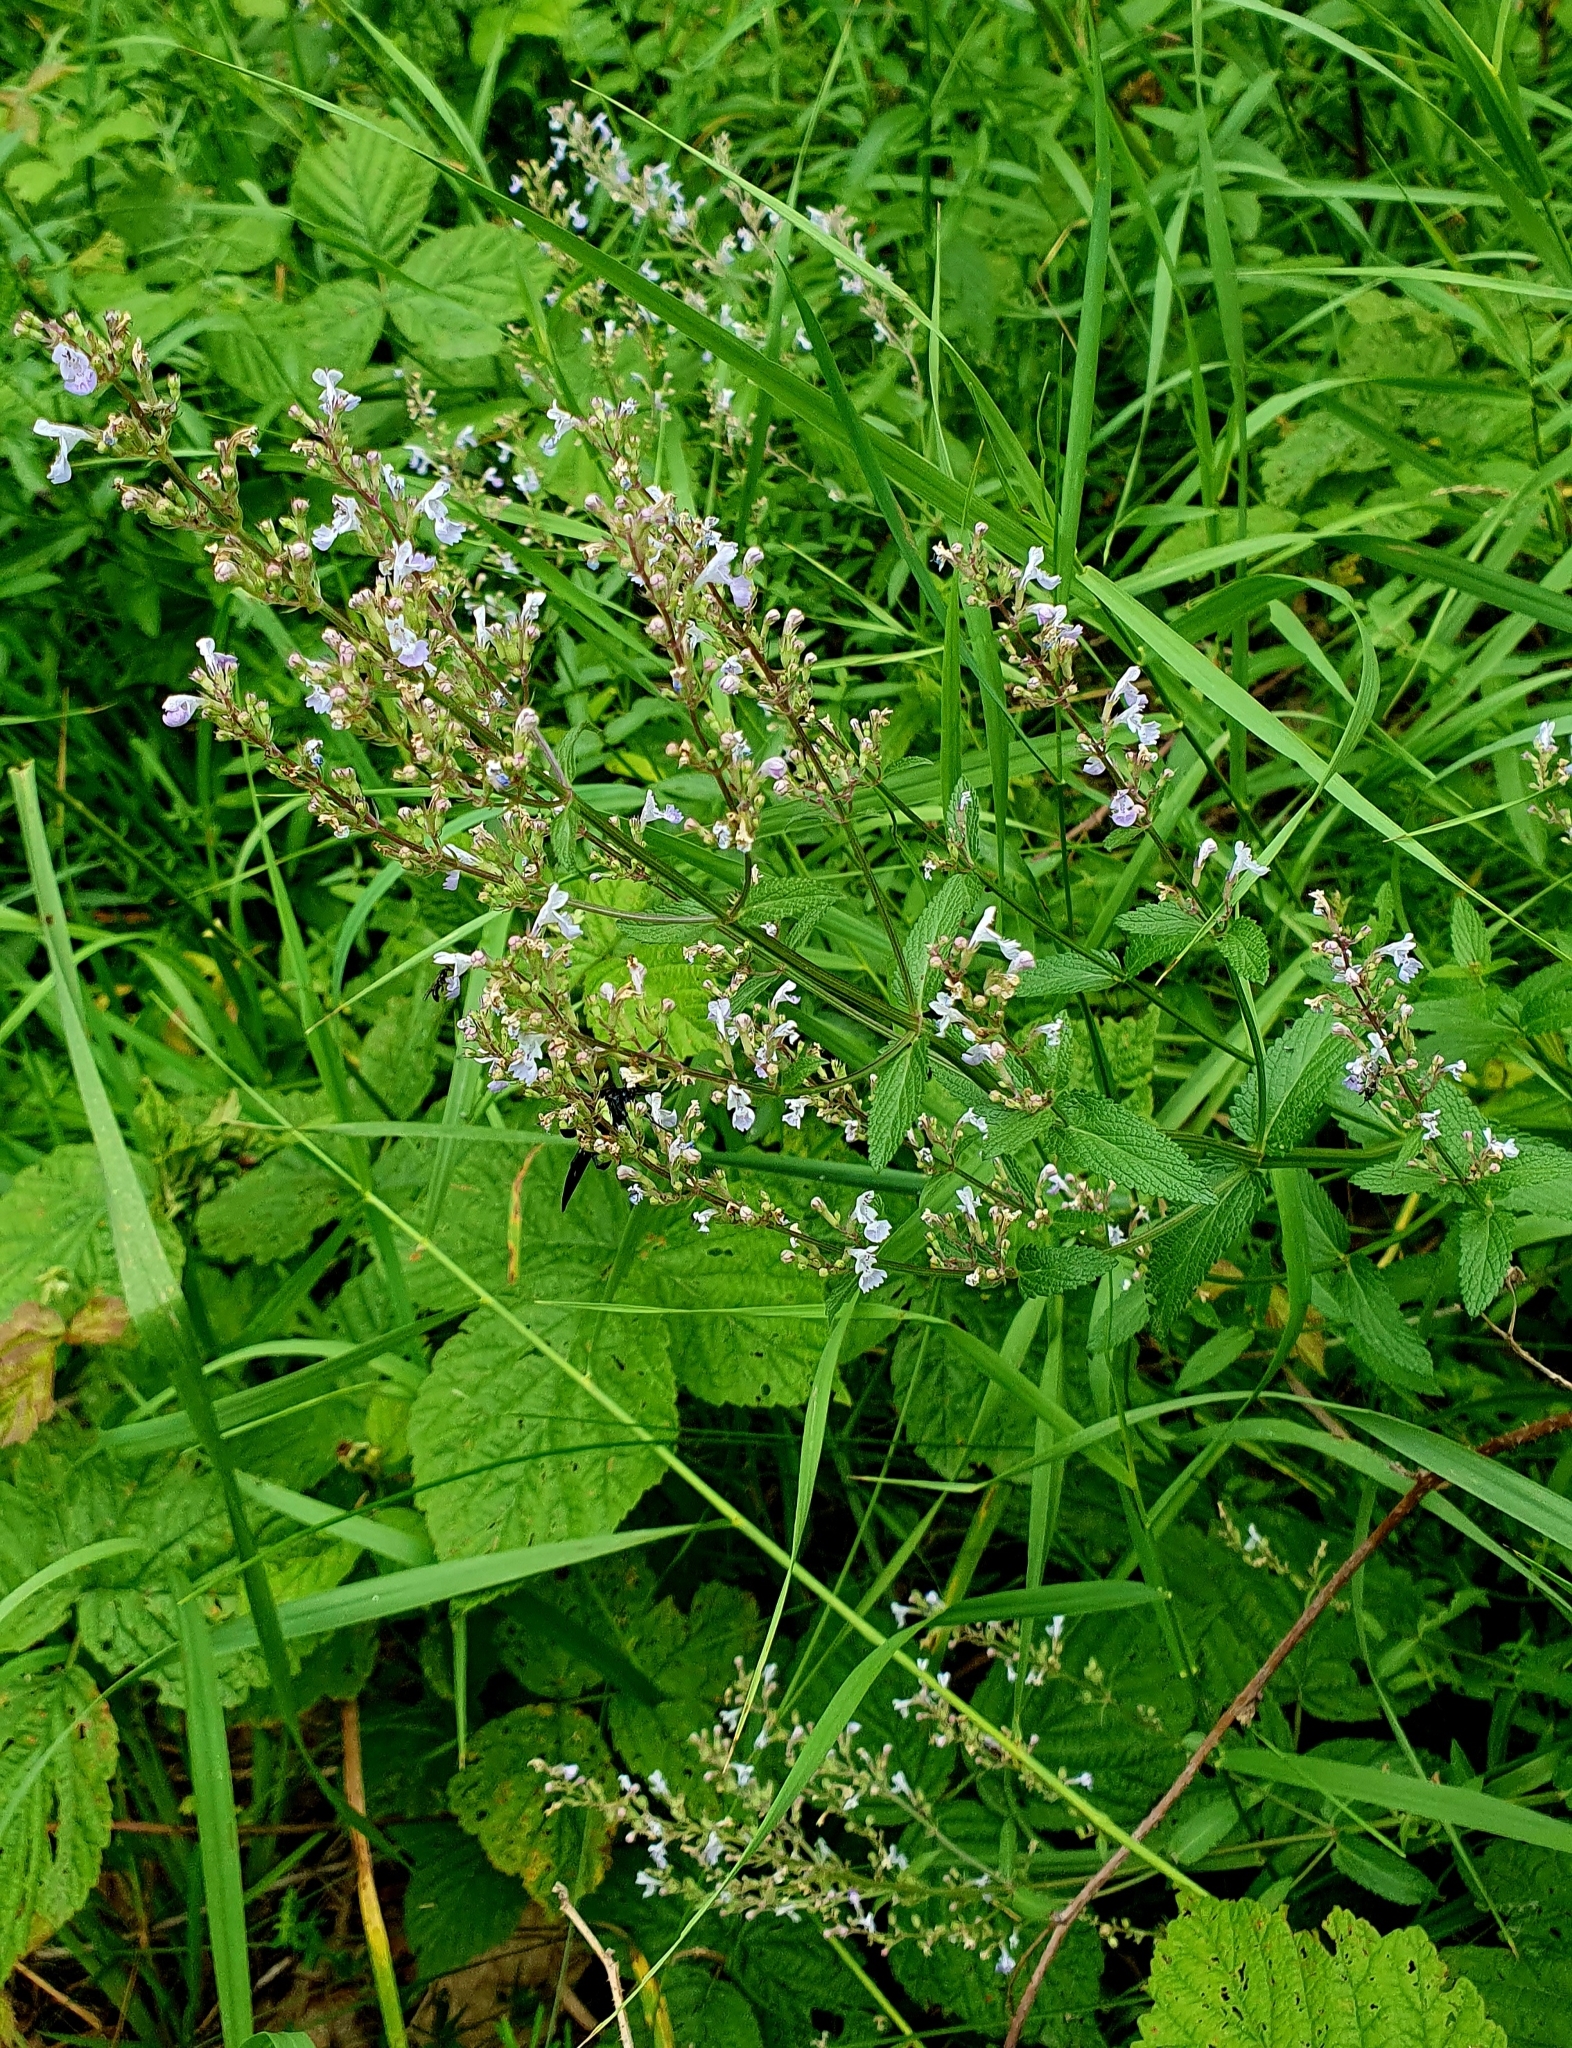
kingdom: Plantae
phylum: Tracheophyta
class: Magnoliopsida
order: Lamiales
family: Lamiaceae
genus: Nepeta
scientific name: Nepeta nuda
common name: Hairless catmint
